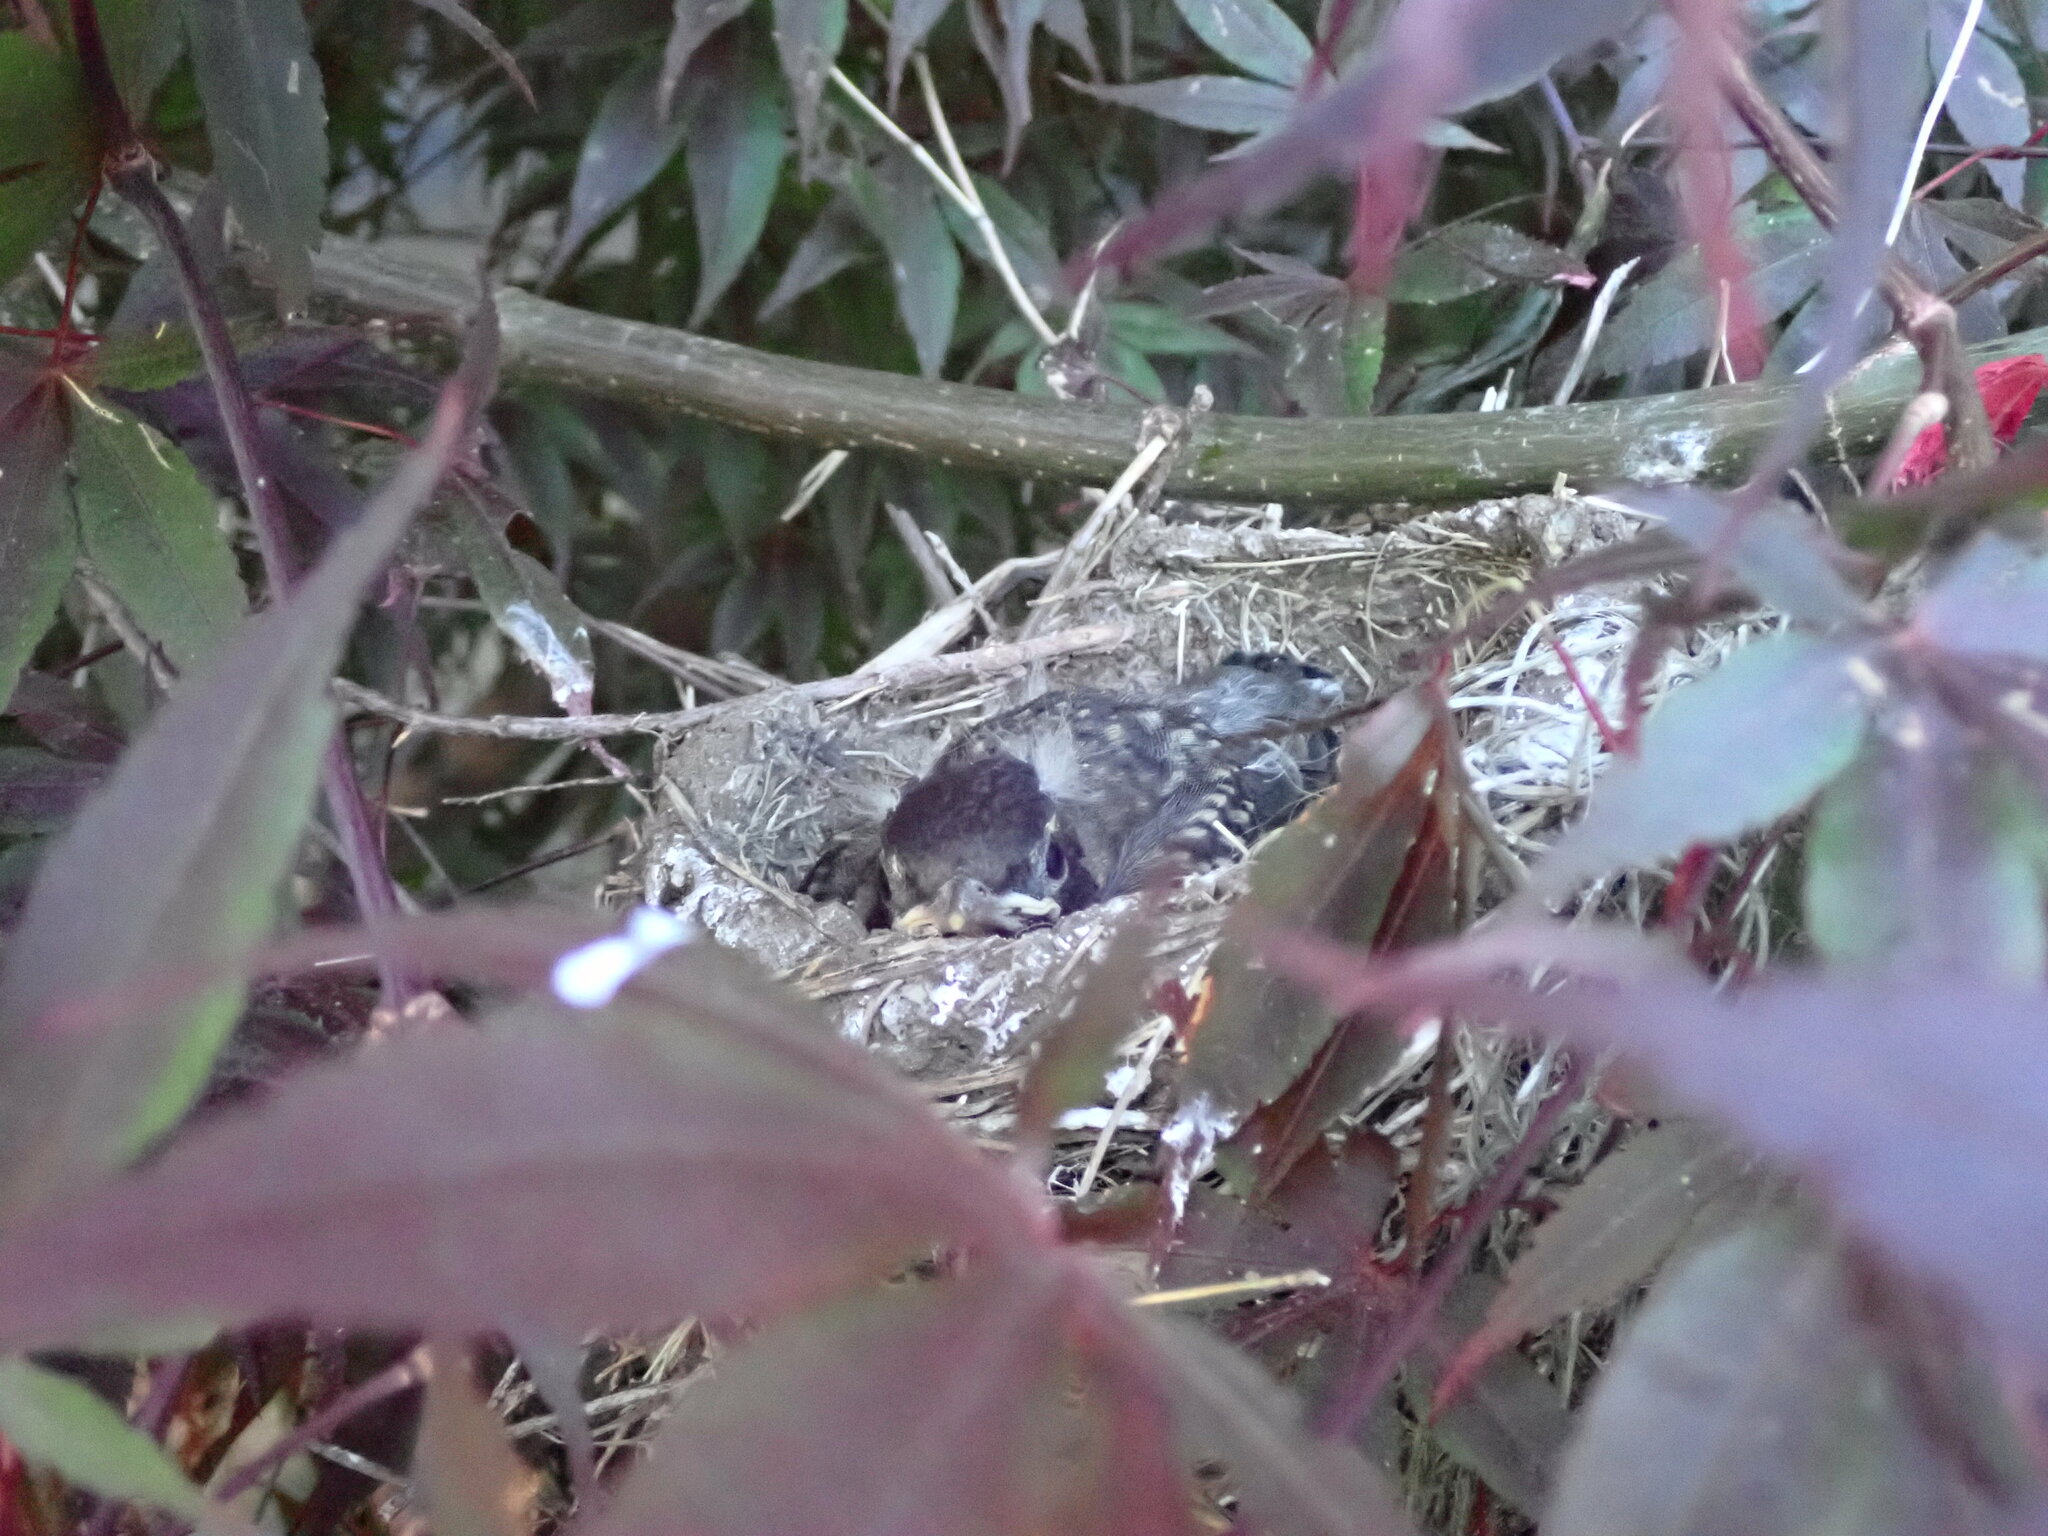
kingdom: Animalia
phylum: Chordata
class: Aves
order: Passeriformes
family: Turdidae
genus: Turdus
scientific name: Turdus migratorius
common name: American robin
